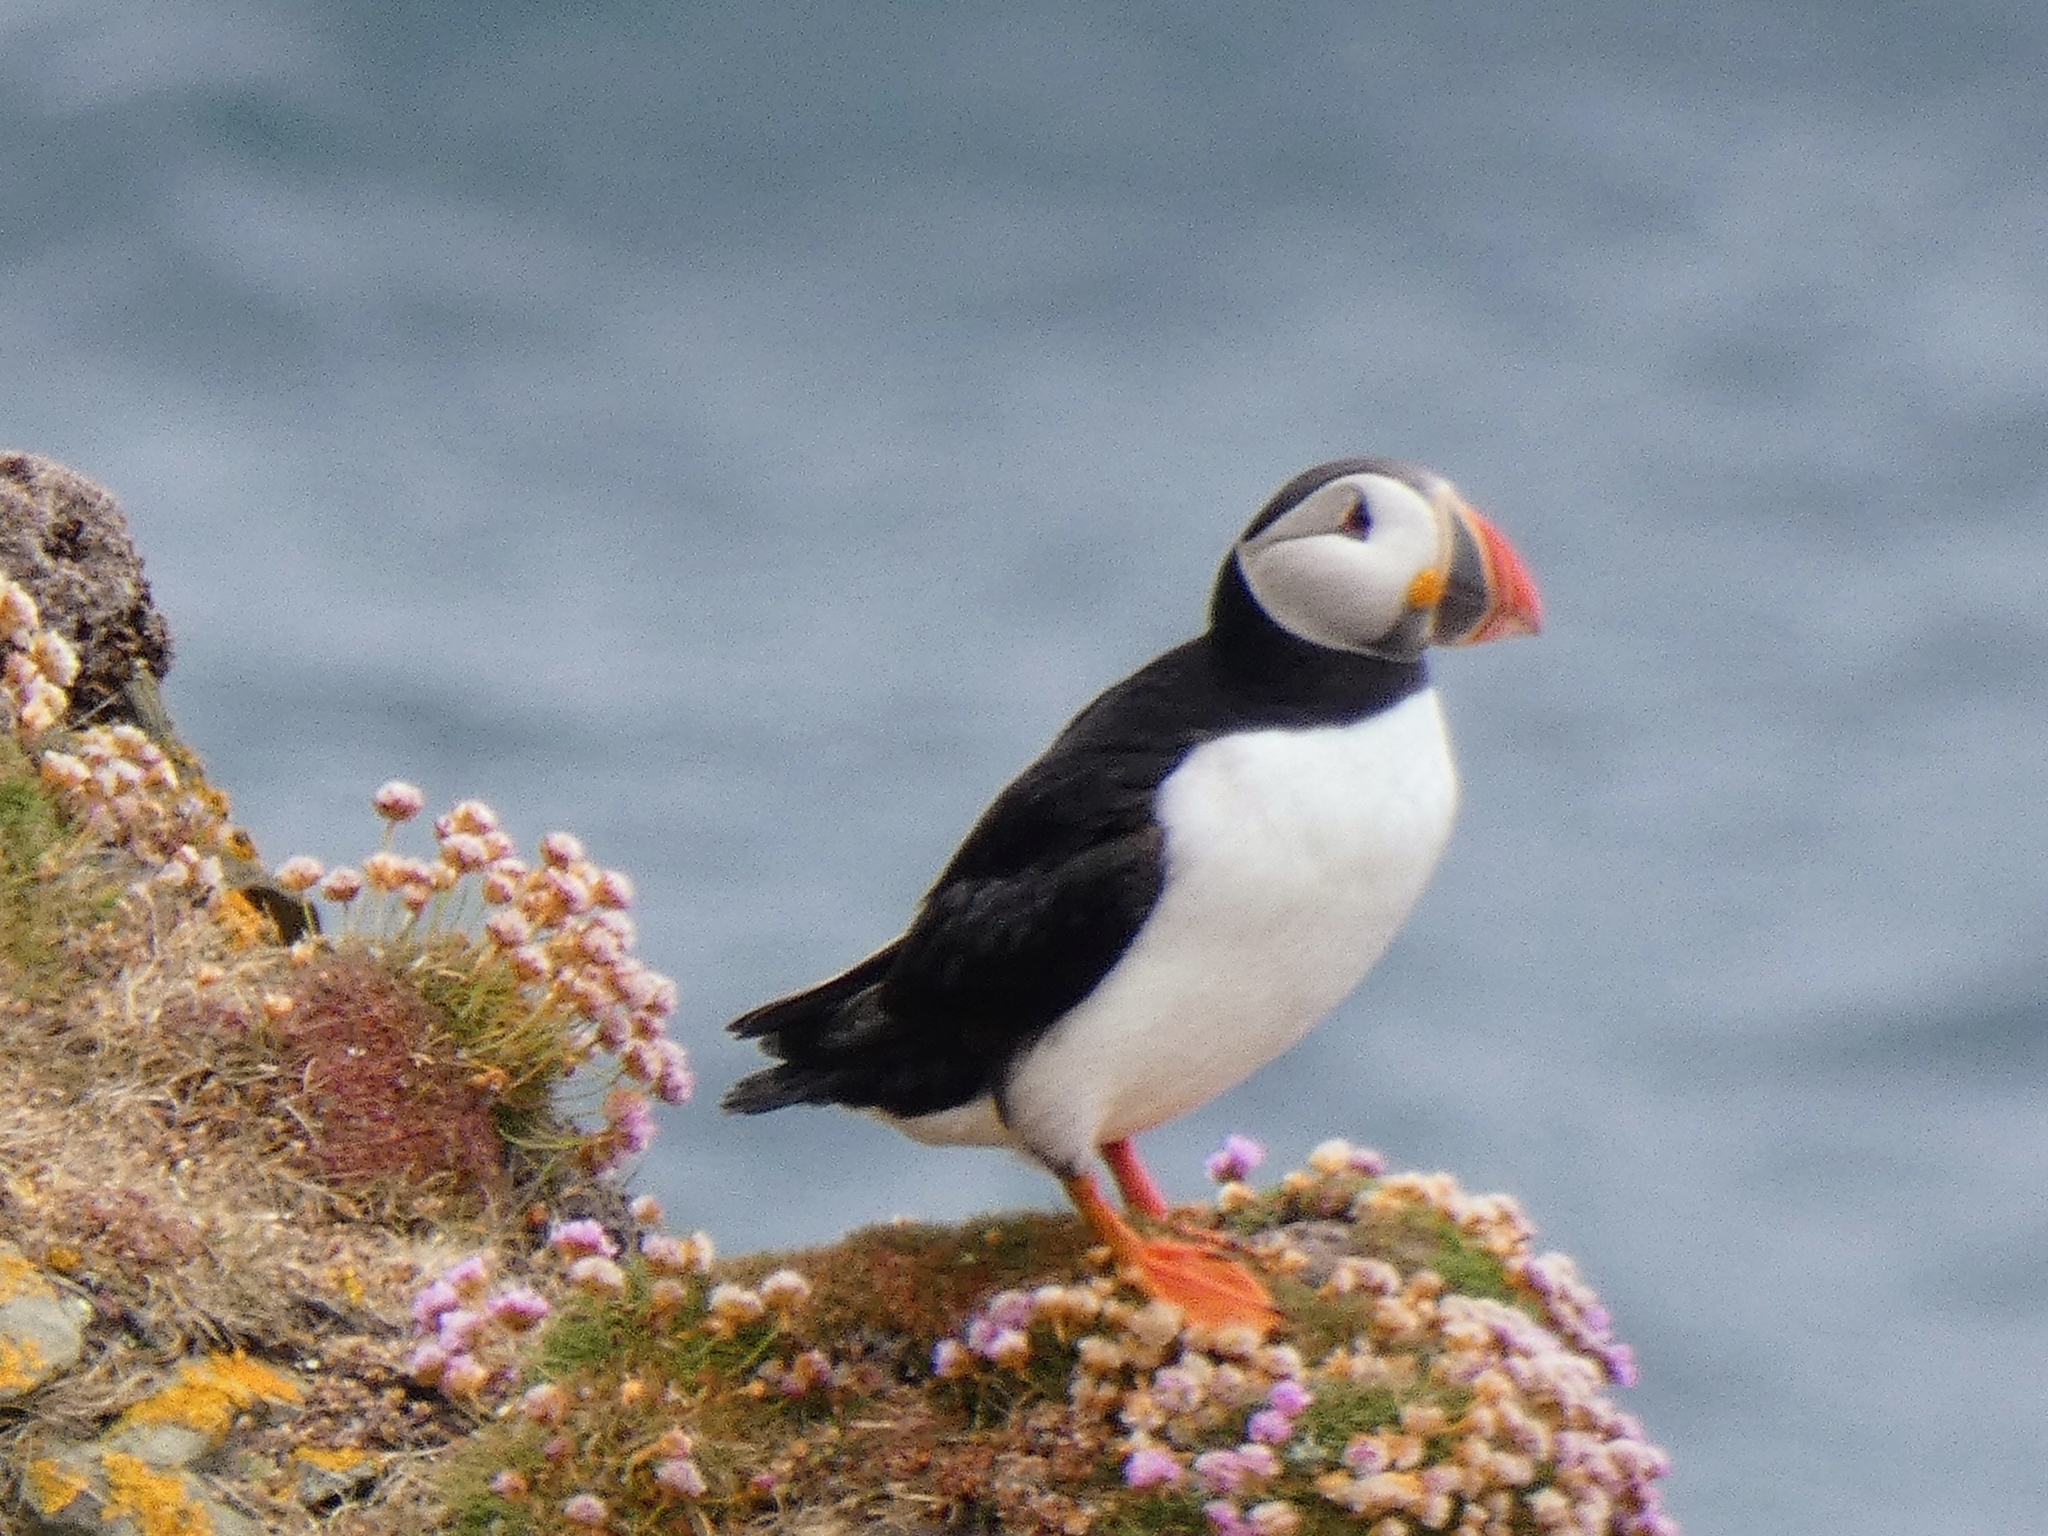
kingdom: Animalia
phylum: Chordata
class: Aves
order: Charadriiformes
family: Alcidae
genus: Fratercula
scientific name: Fratercula arctica
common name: Atlantic puffin
